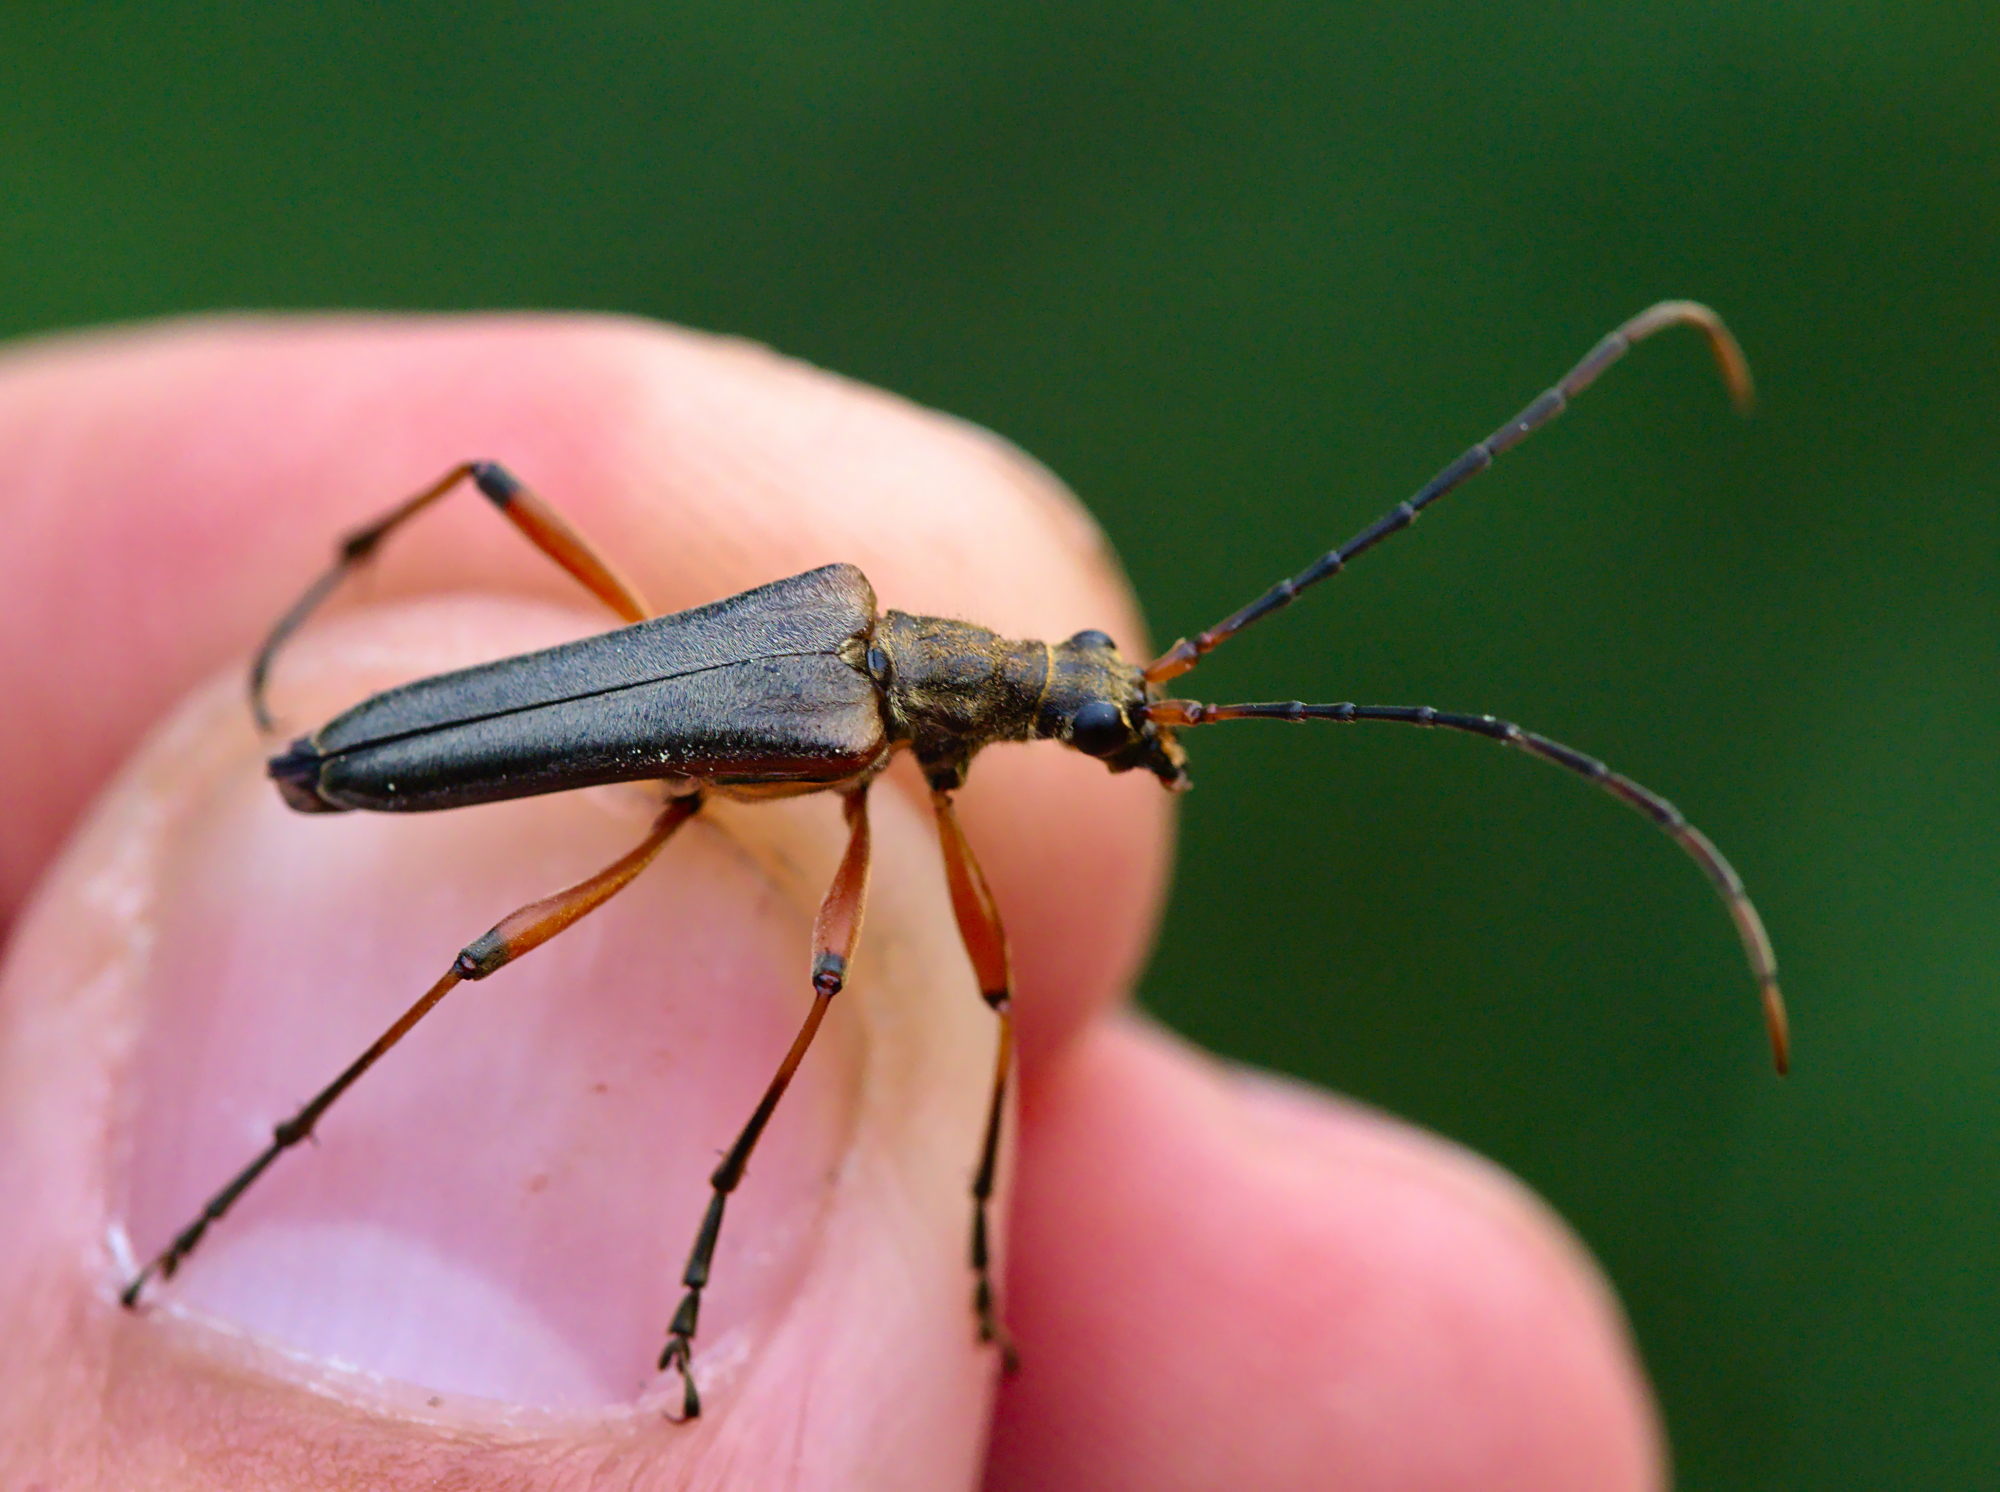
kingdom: Animalia
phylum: Arthropoda
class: Insecta
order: Coleoptera
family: Cerambycidae
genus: Stenocorus
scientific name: Stenocorus meridianus
